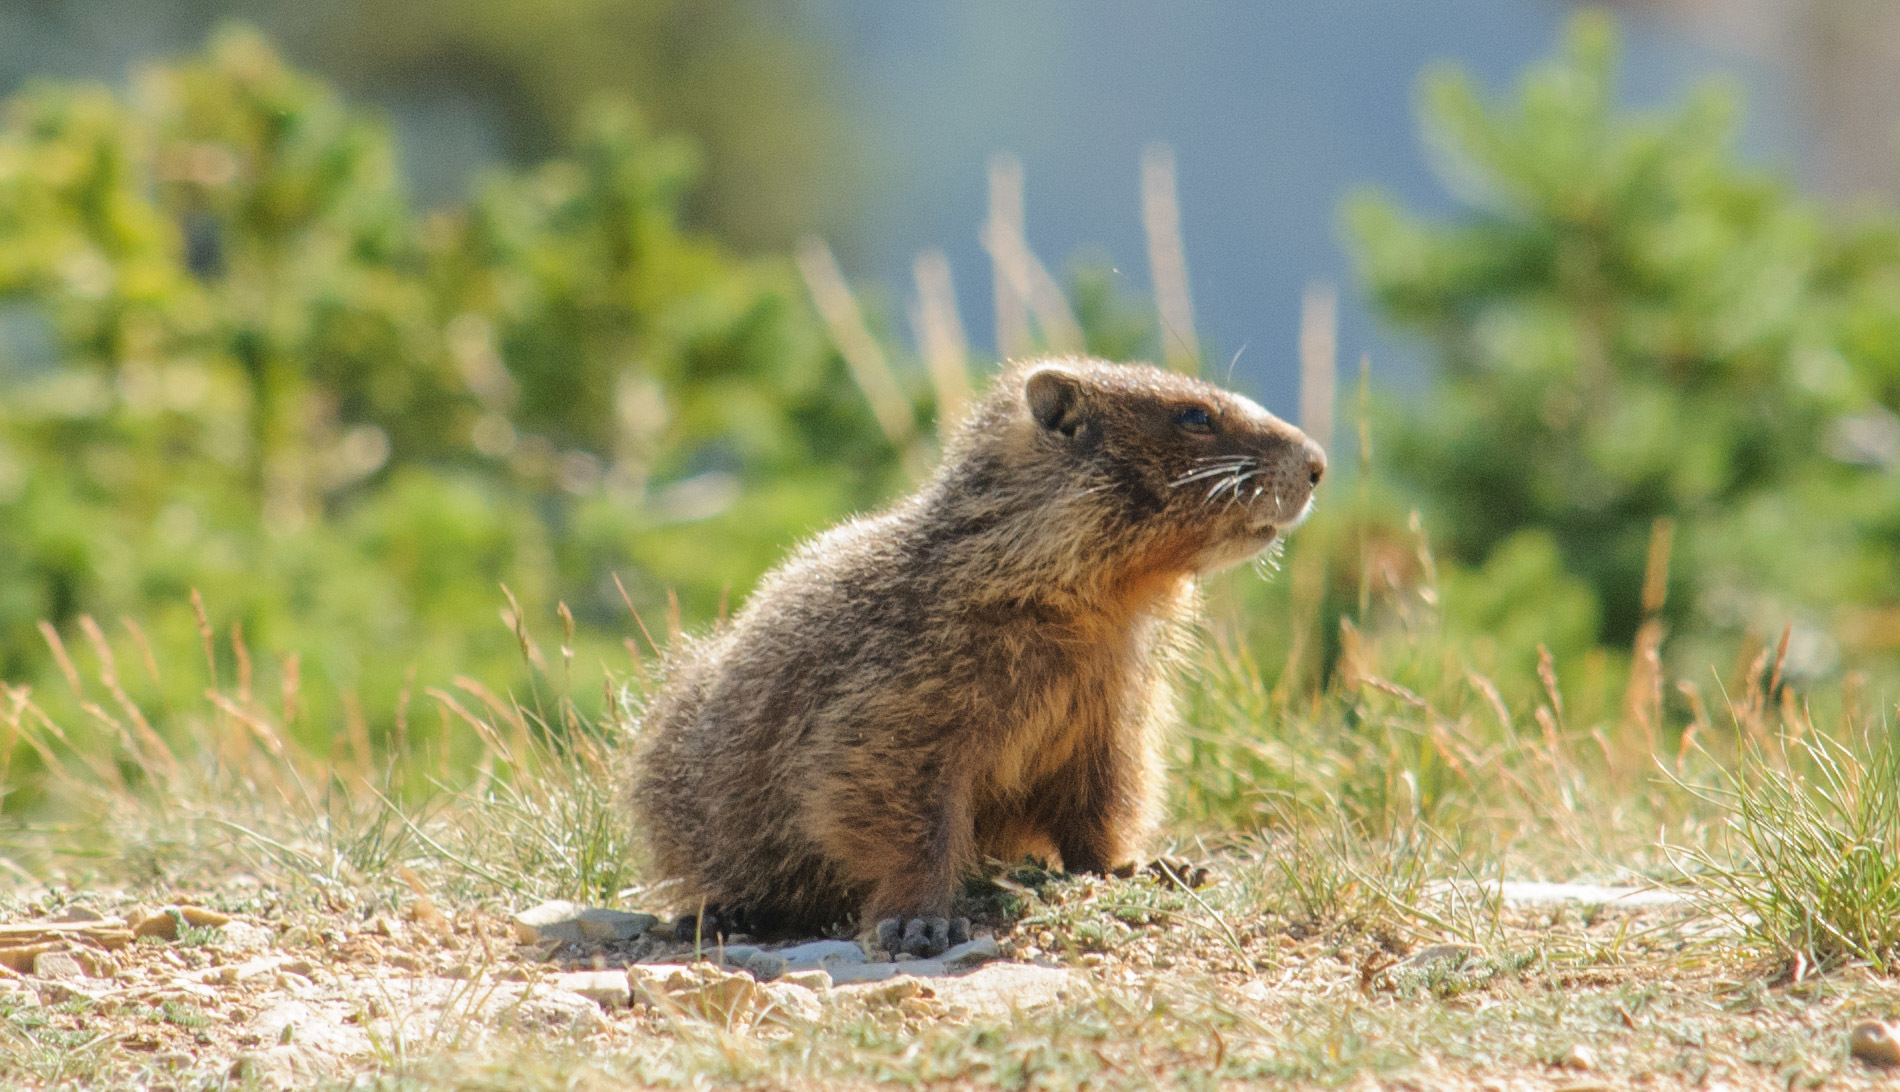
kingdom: Animalia
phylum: Chordata
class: Mammalia
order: Rodentia
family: Sciuridae
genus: Marmota
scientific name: Marmota flaviventris
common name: Yellow-bellied marmot
